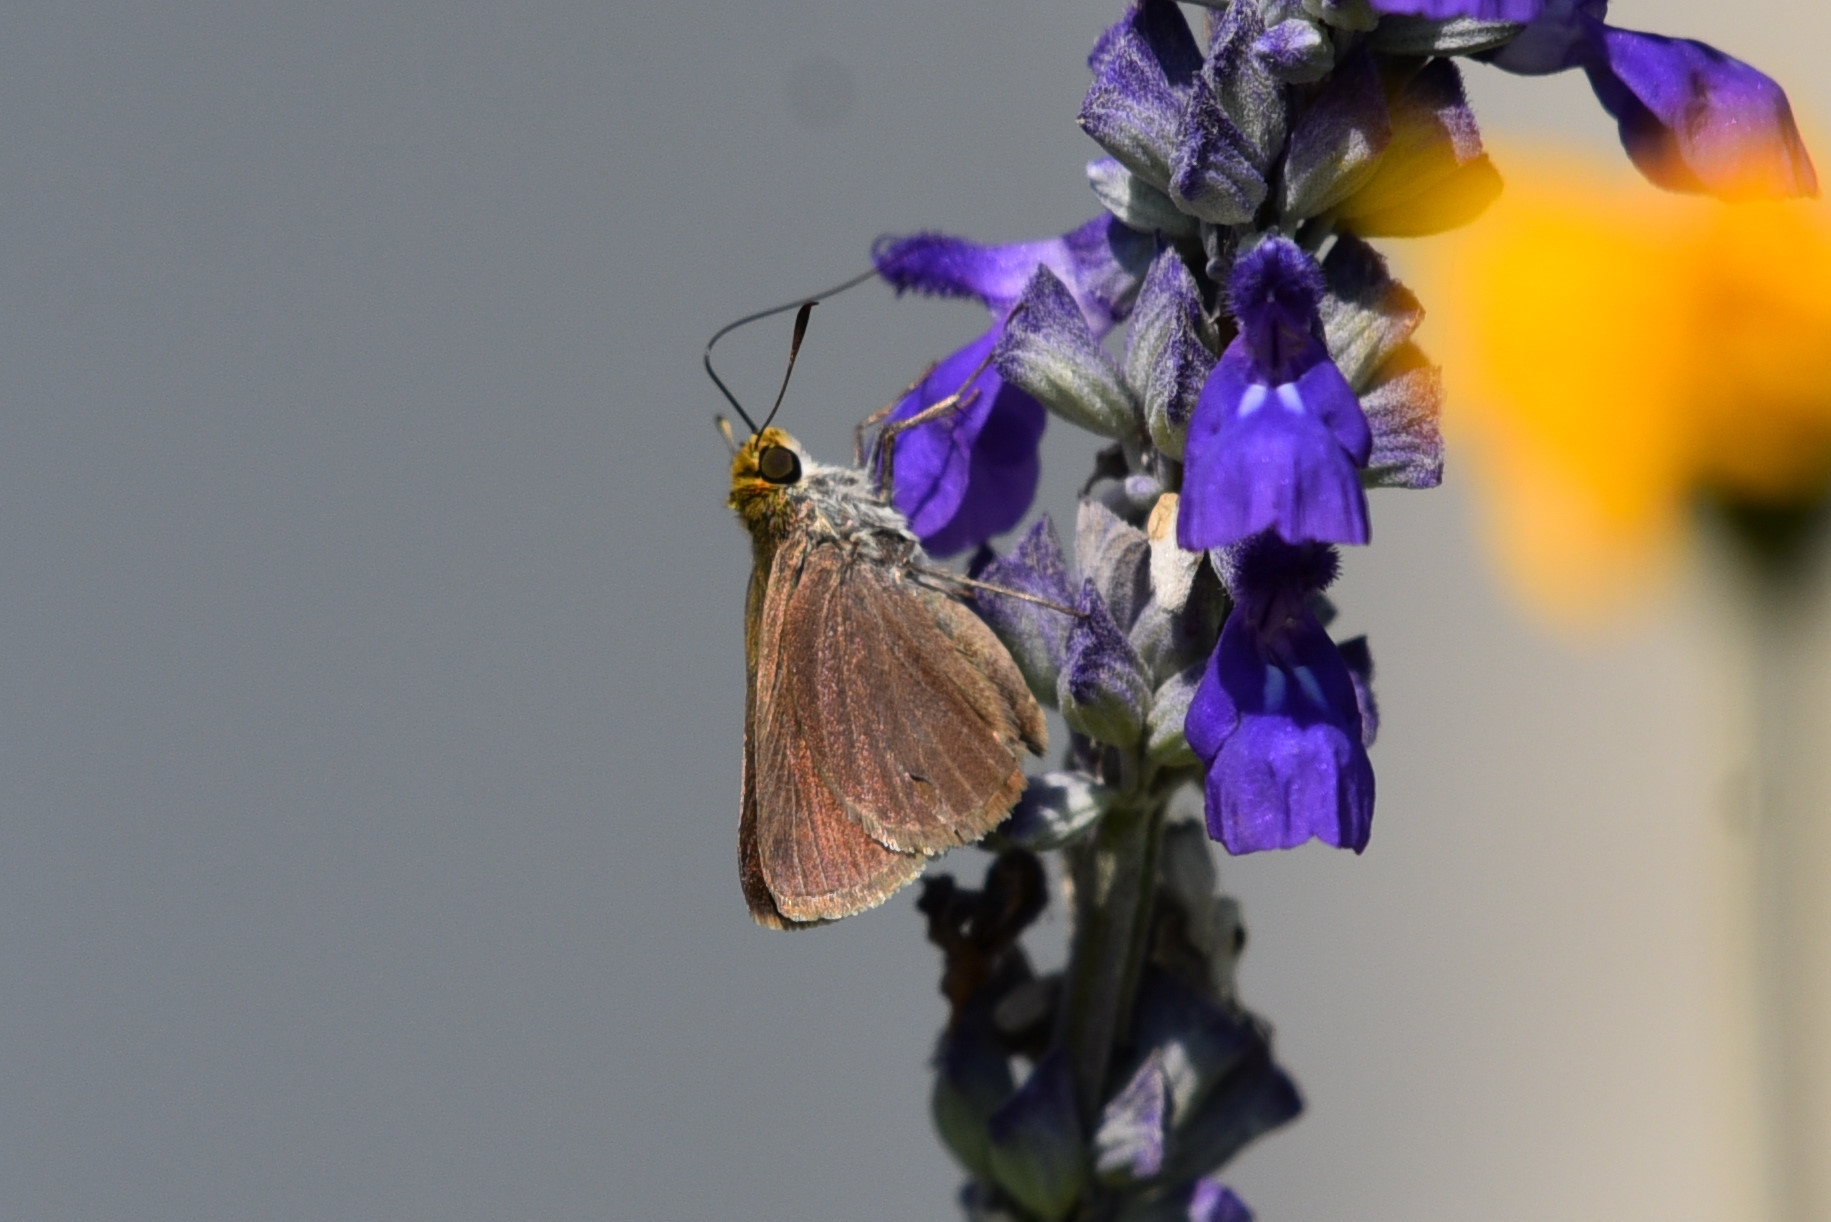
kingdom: Animalia
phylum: Arthropoda
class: Insecta
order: Lepidoptera
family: Hesperiidae
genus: Euphyes
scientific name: Euphyes vestris
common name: Dun skipper
